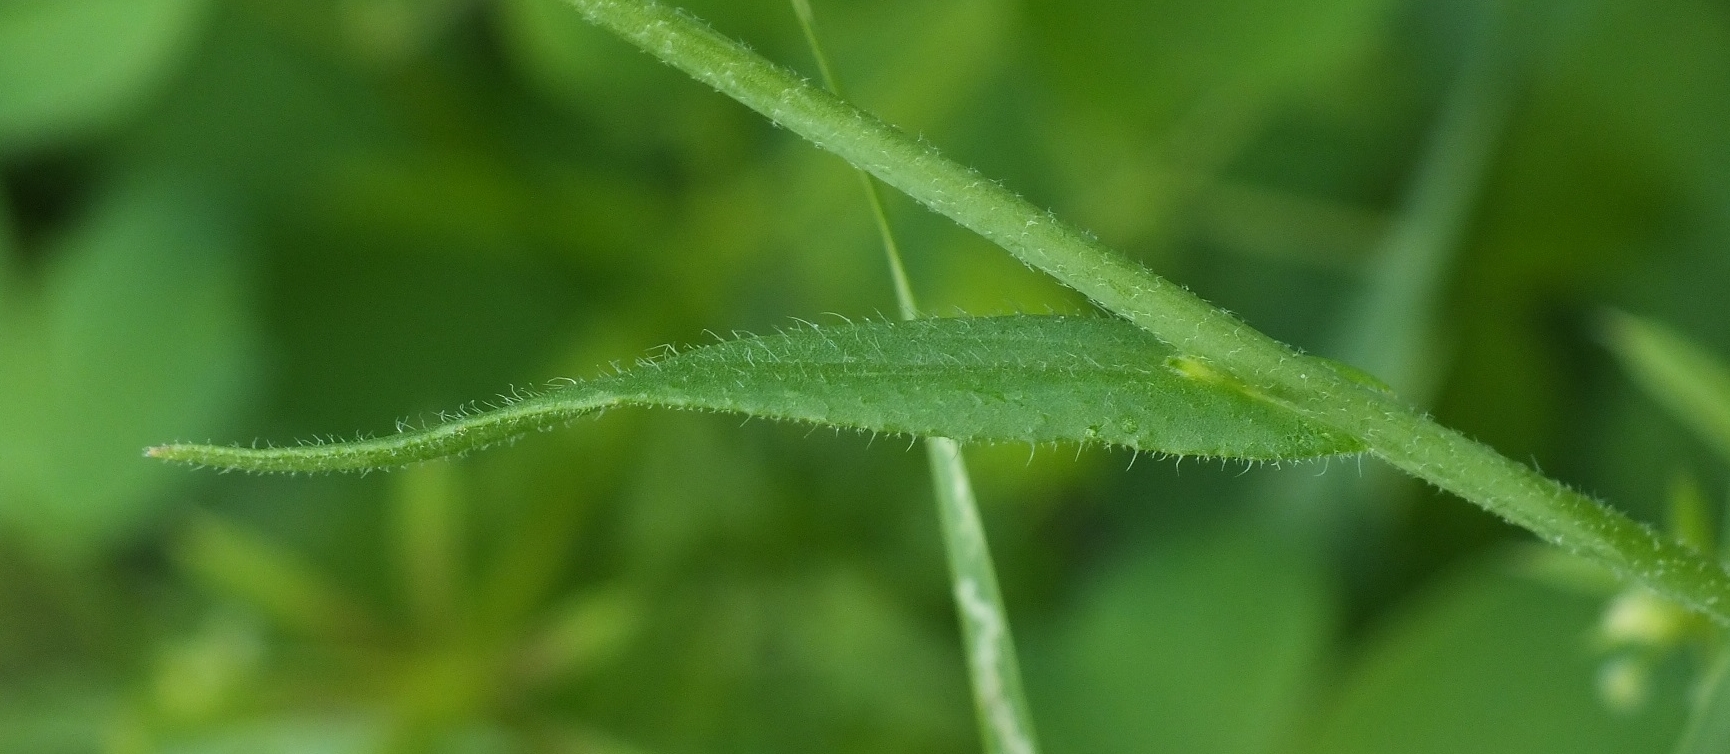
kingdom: Plantae
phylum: Tracheophyta
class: Magnoliopsida
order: Brassicales
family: Brassicaceae
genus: Camelina
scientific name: Camelina microcarpa
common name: Lesser gold-of-pleasure
